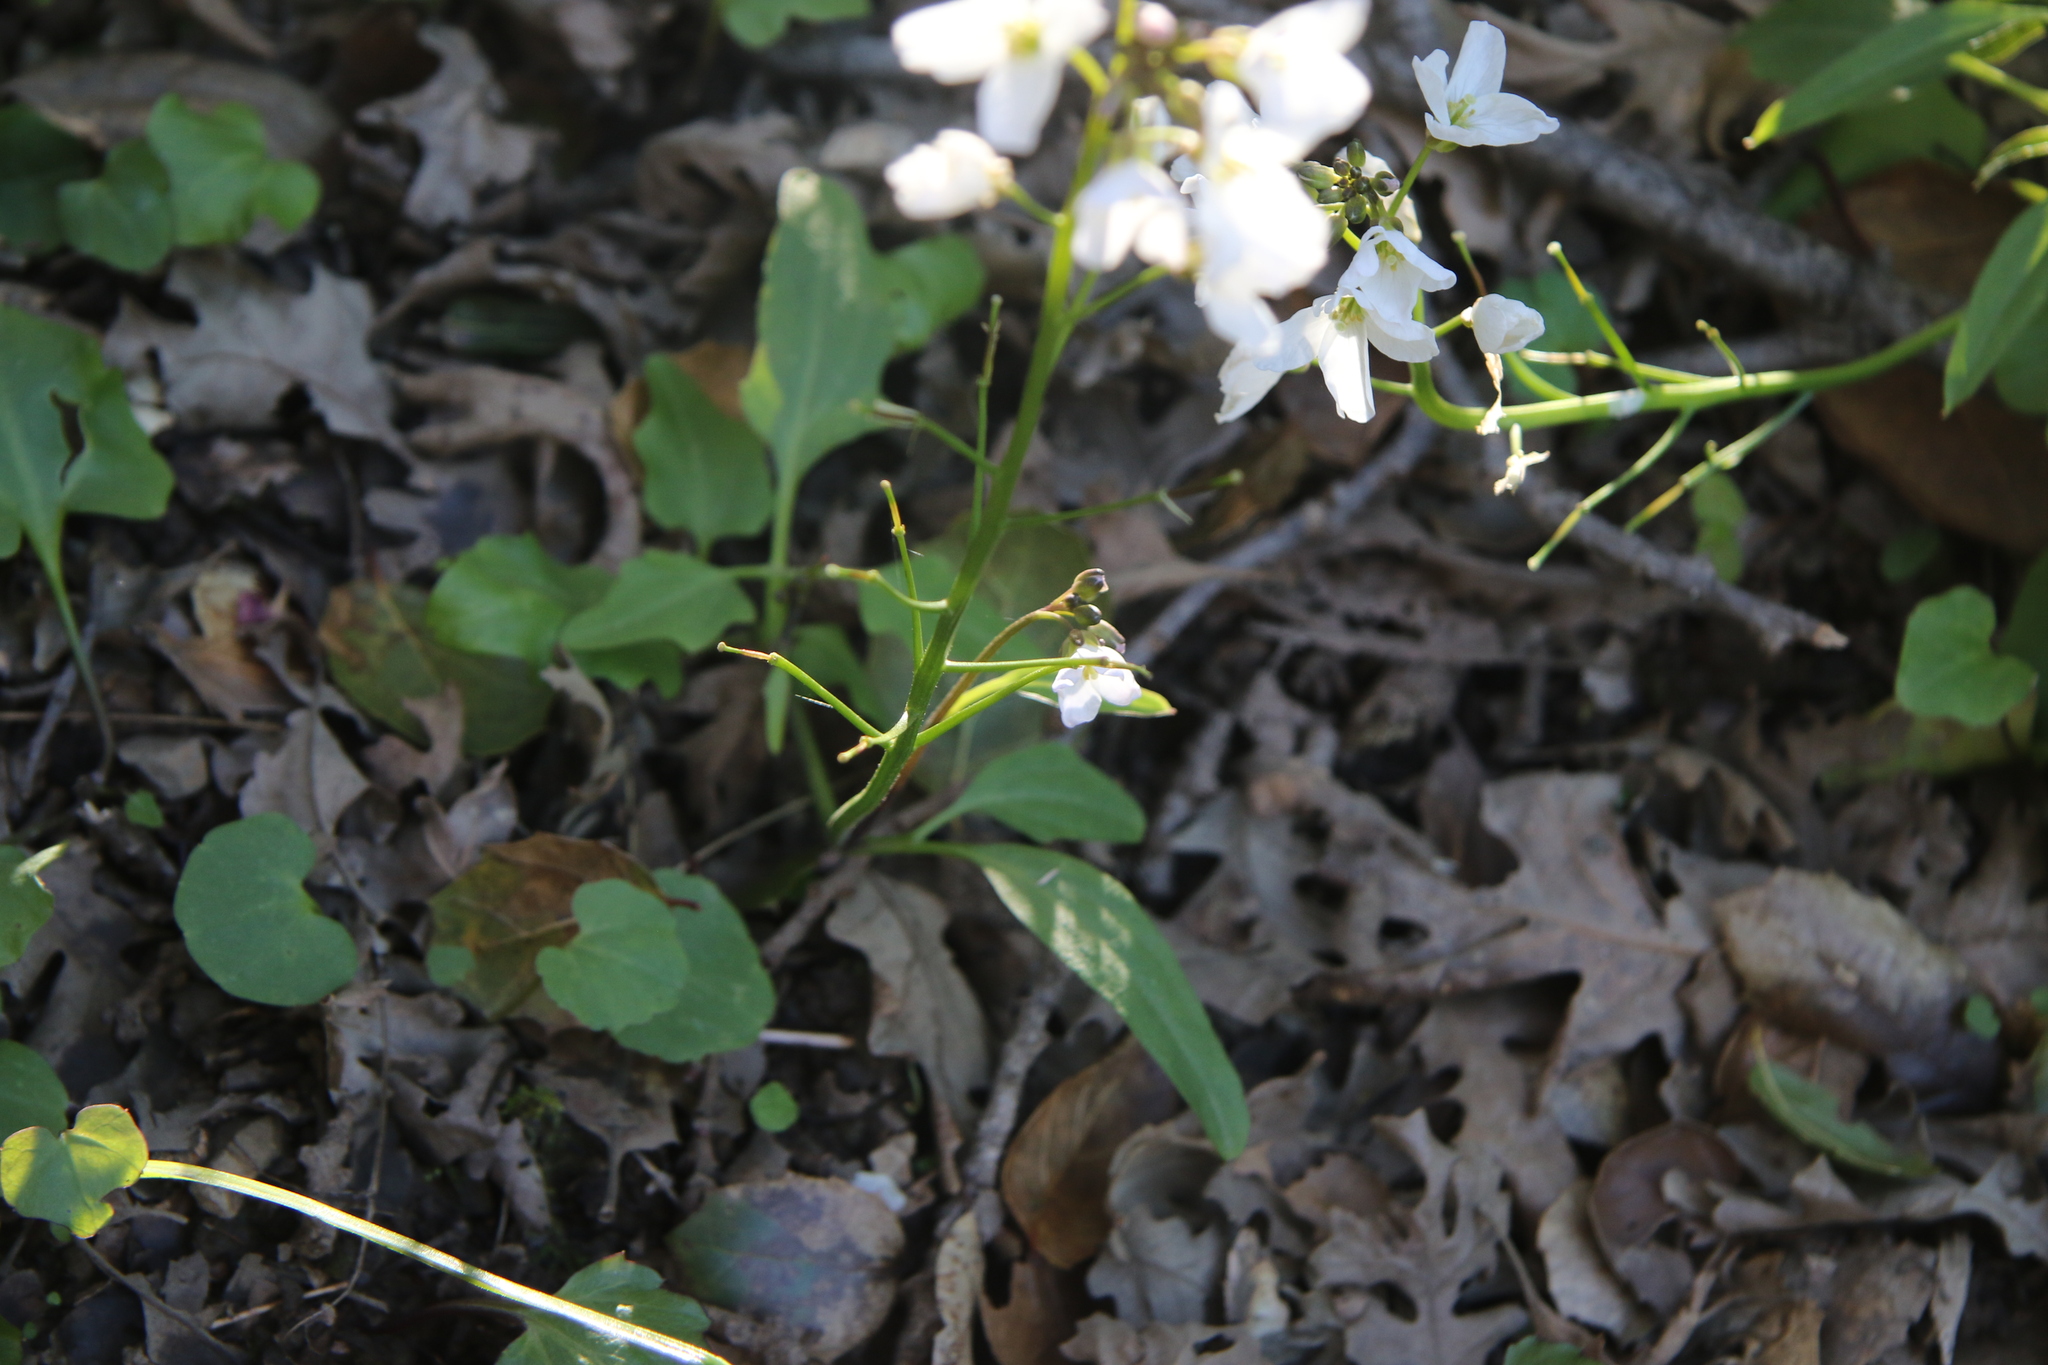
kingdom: Plantae
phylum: Tracheophyta
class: Magnoliopsida
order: Brassicales
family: Brassicaceae
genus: Cardamine
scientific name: Cardamine californica
